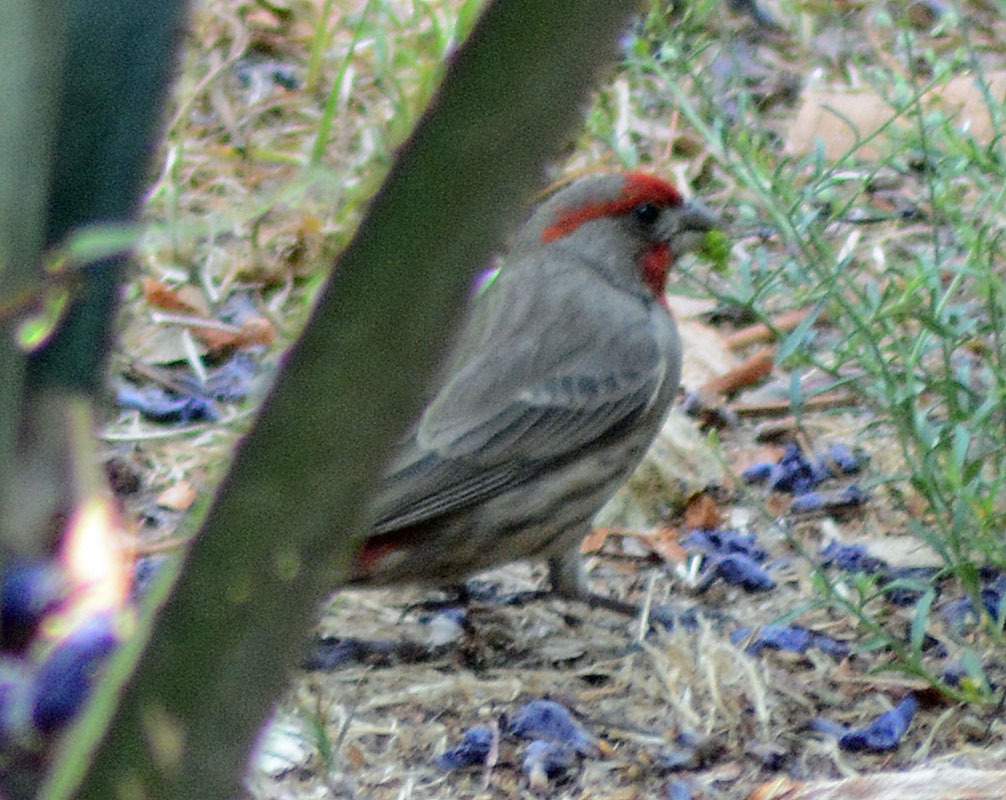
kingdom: Animalia
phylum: Chordata
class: Aves
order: Passeriformes
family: Fringillidae
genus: Haemorhous
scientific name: Haemorhous mexicanus
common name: House finch
